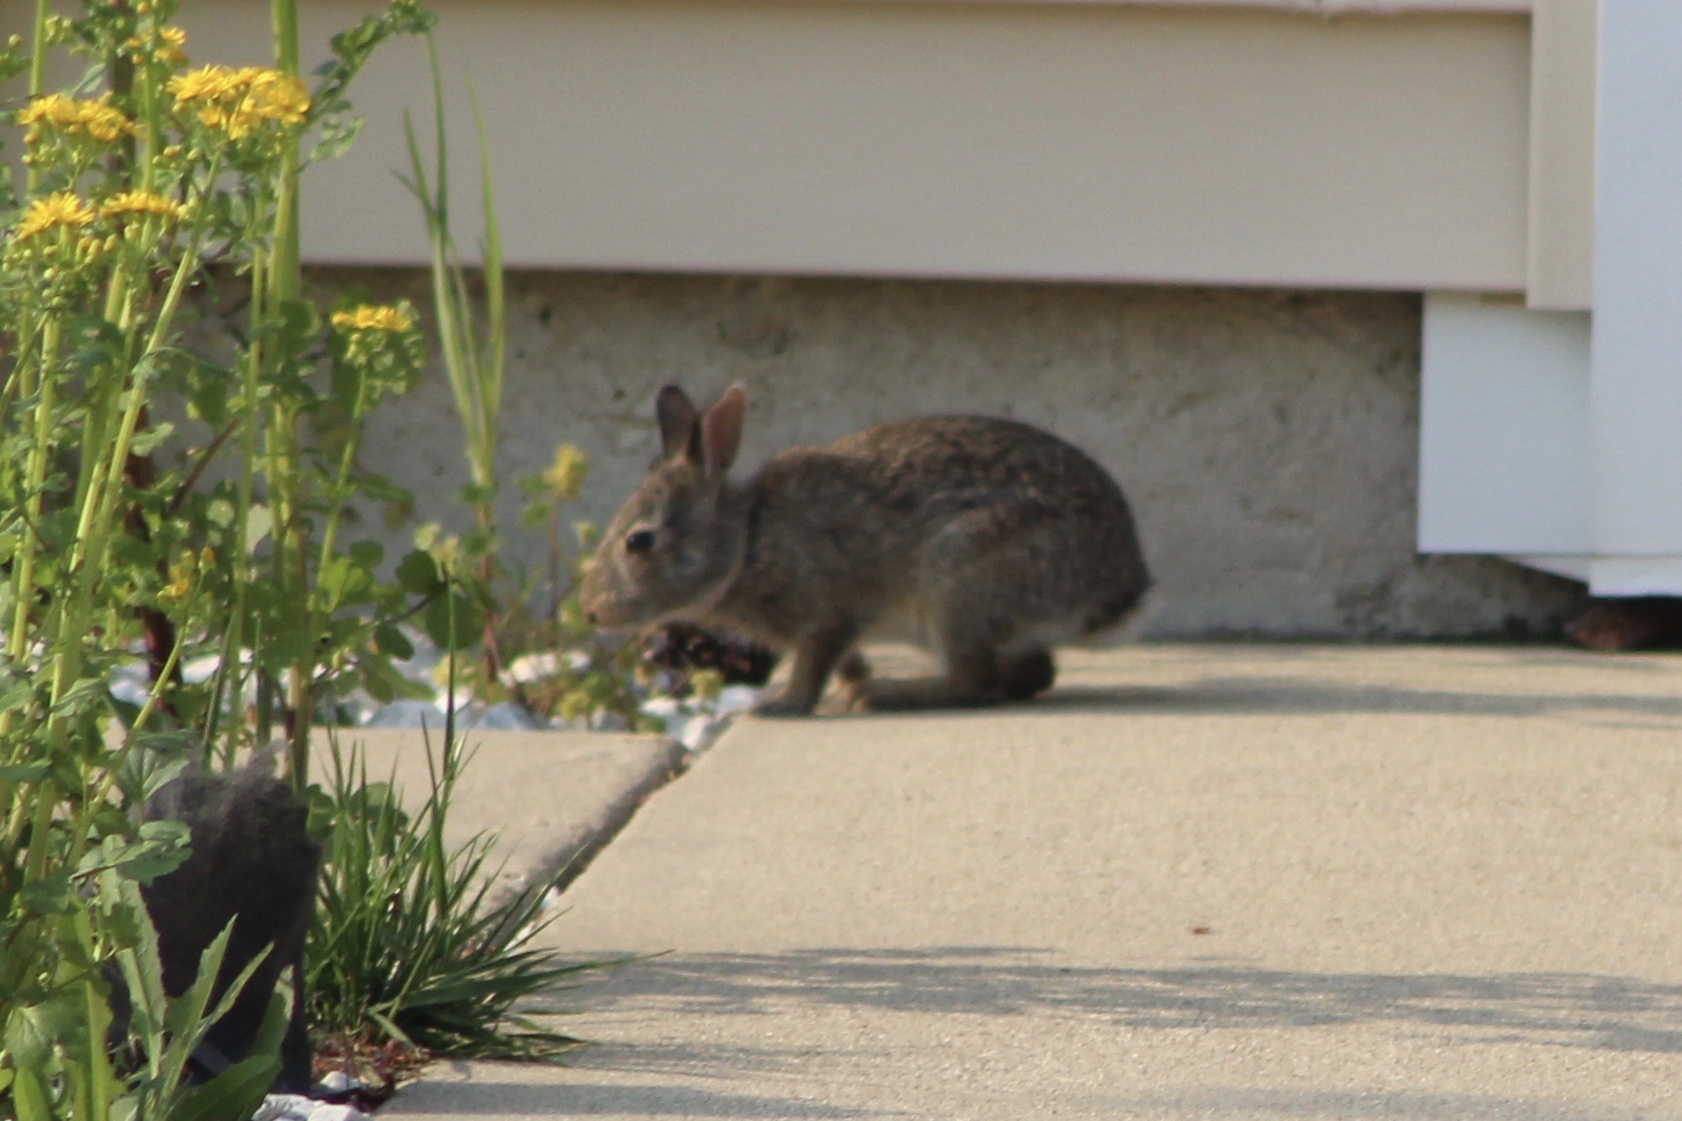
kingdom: Animalia
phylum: Chordata
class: Mammalia
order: Lagomorpha
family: Leporidae
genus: Sylvilagus
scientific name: Sylvilagus floridanus
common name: Eastern cottontail
